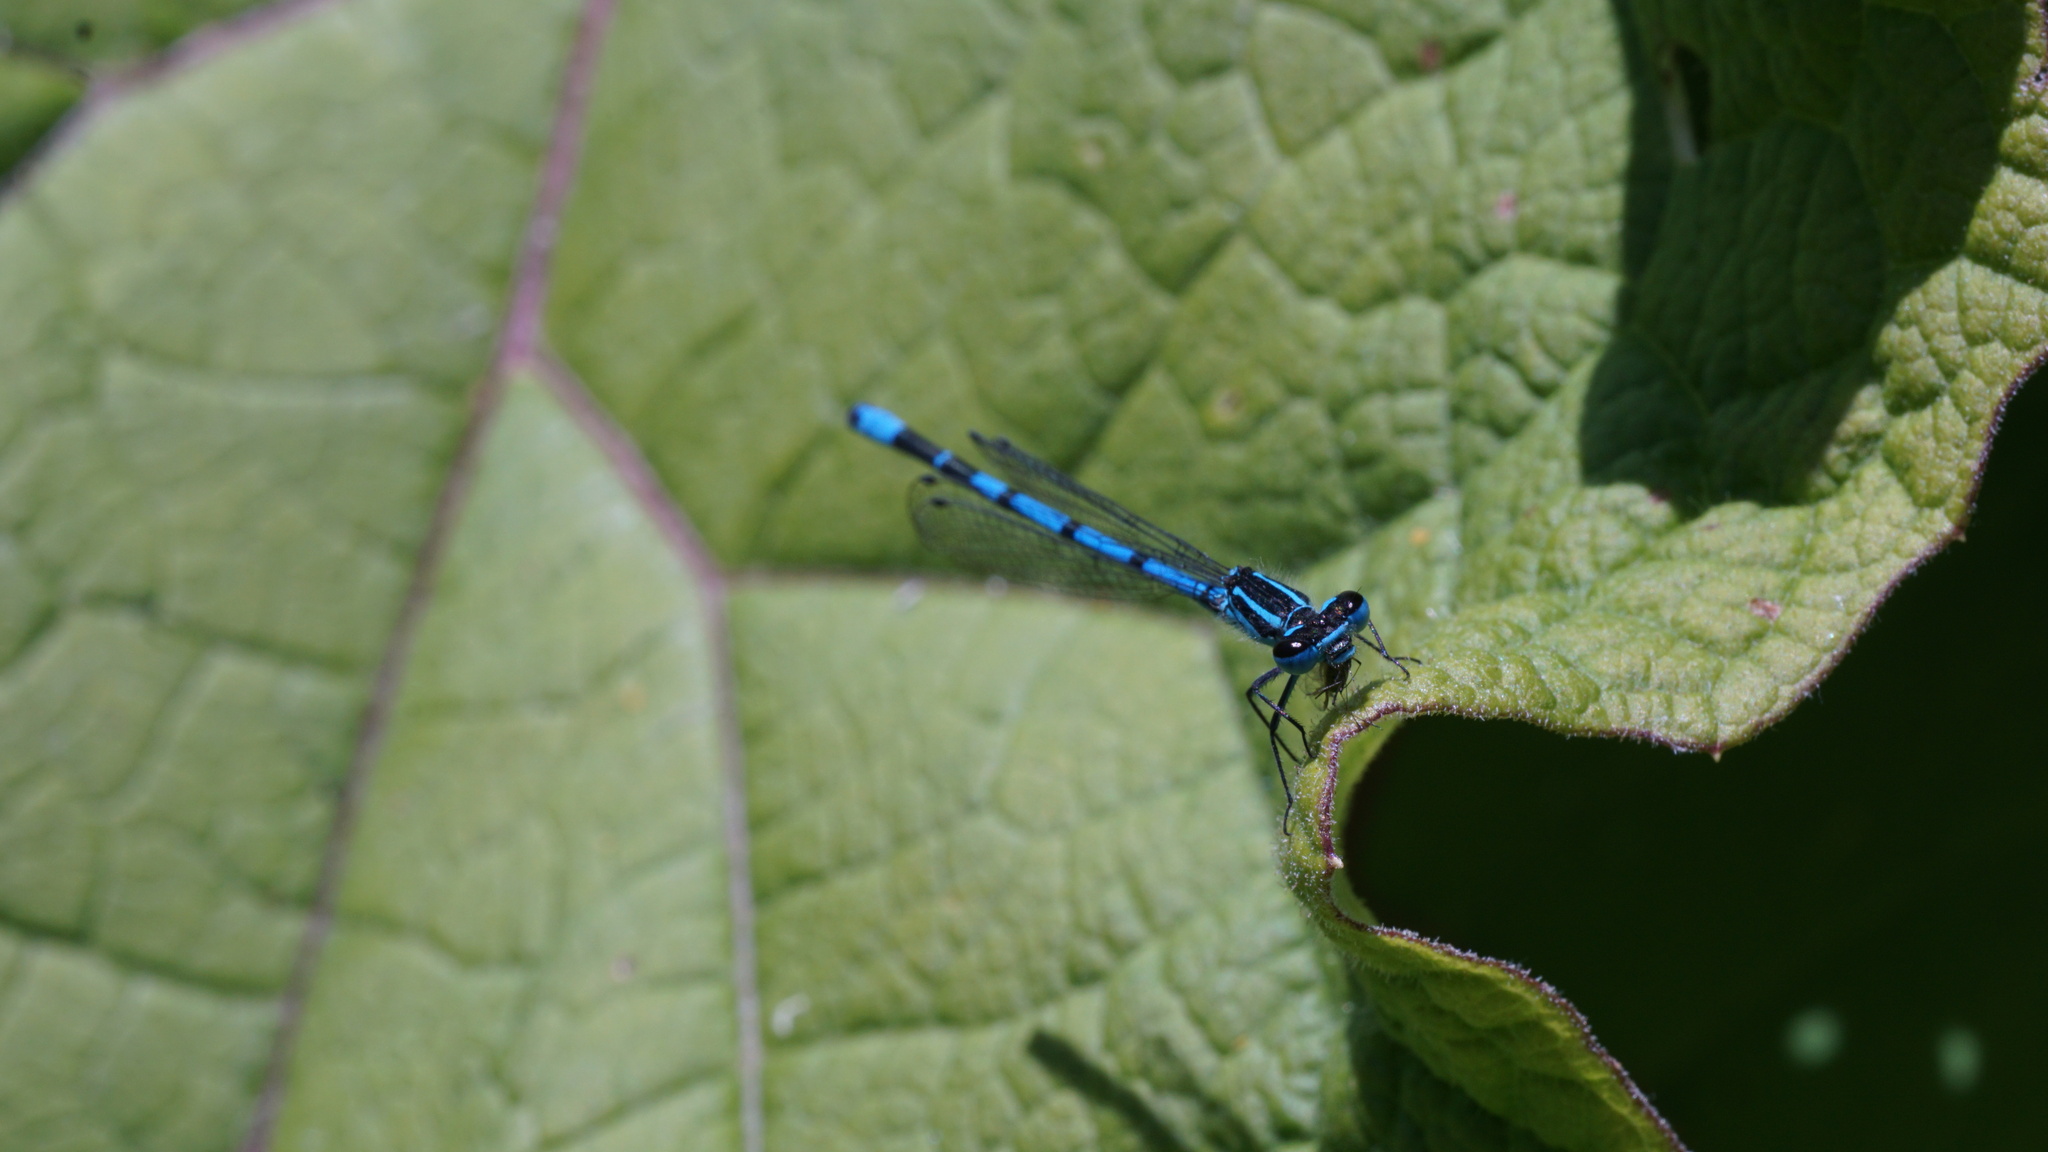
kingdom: Animalia
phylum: Arthropoda
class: Insecta
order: Odonata
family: Coenagrionidae
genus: Coenagrion
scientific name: Coenagrion puella
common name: Azure damselfly
